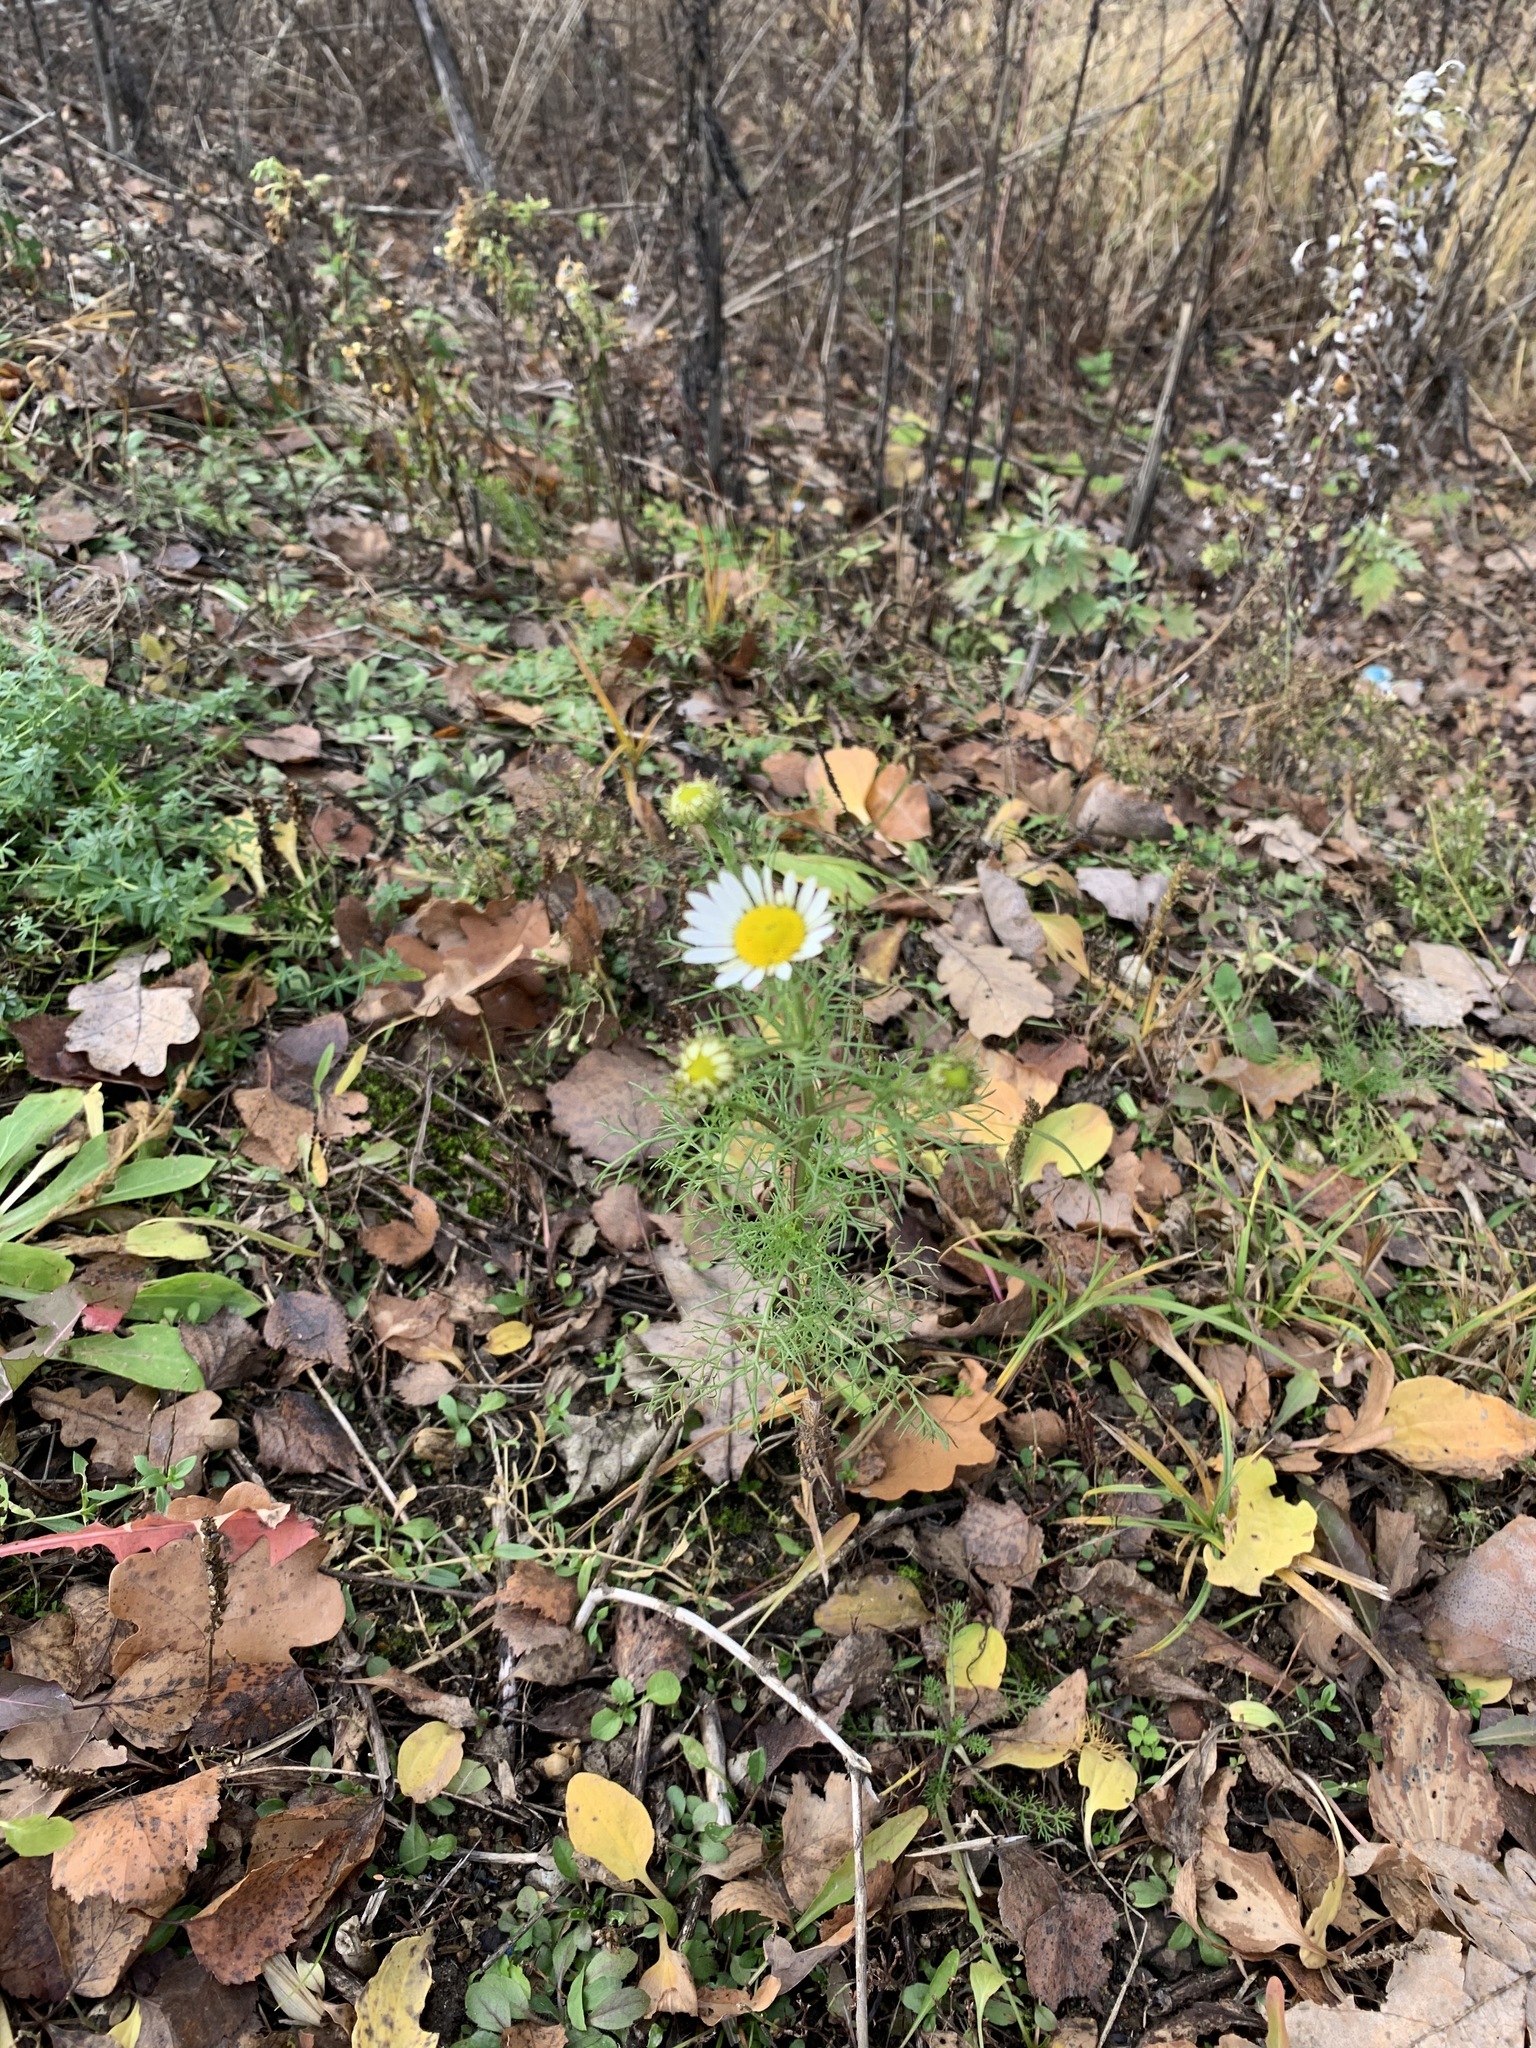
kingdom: Plantae
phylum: Tracheophyta
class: Magnoliopsida
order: Asterales
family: Asteraceae
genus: Tripleurospermum
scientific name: Tripleurospermum inodorum
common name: Scentless mayweed
